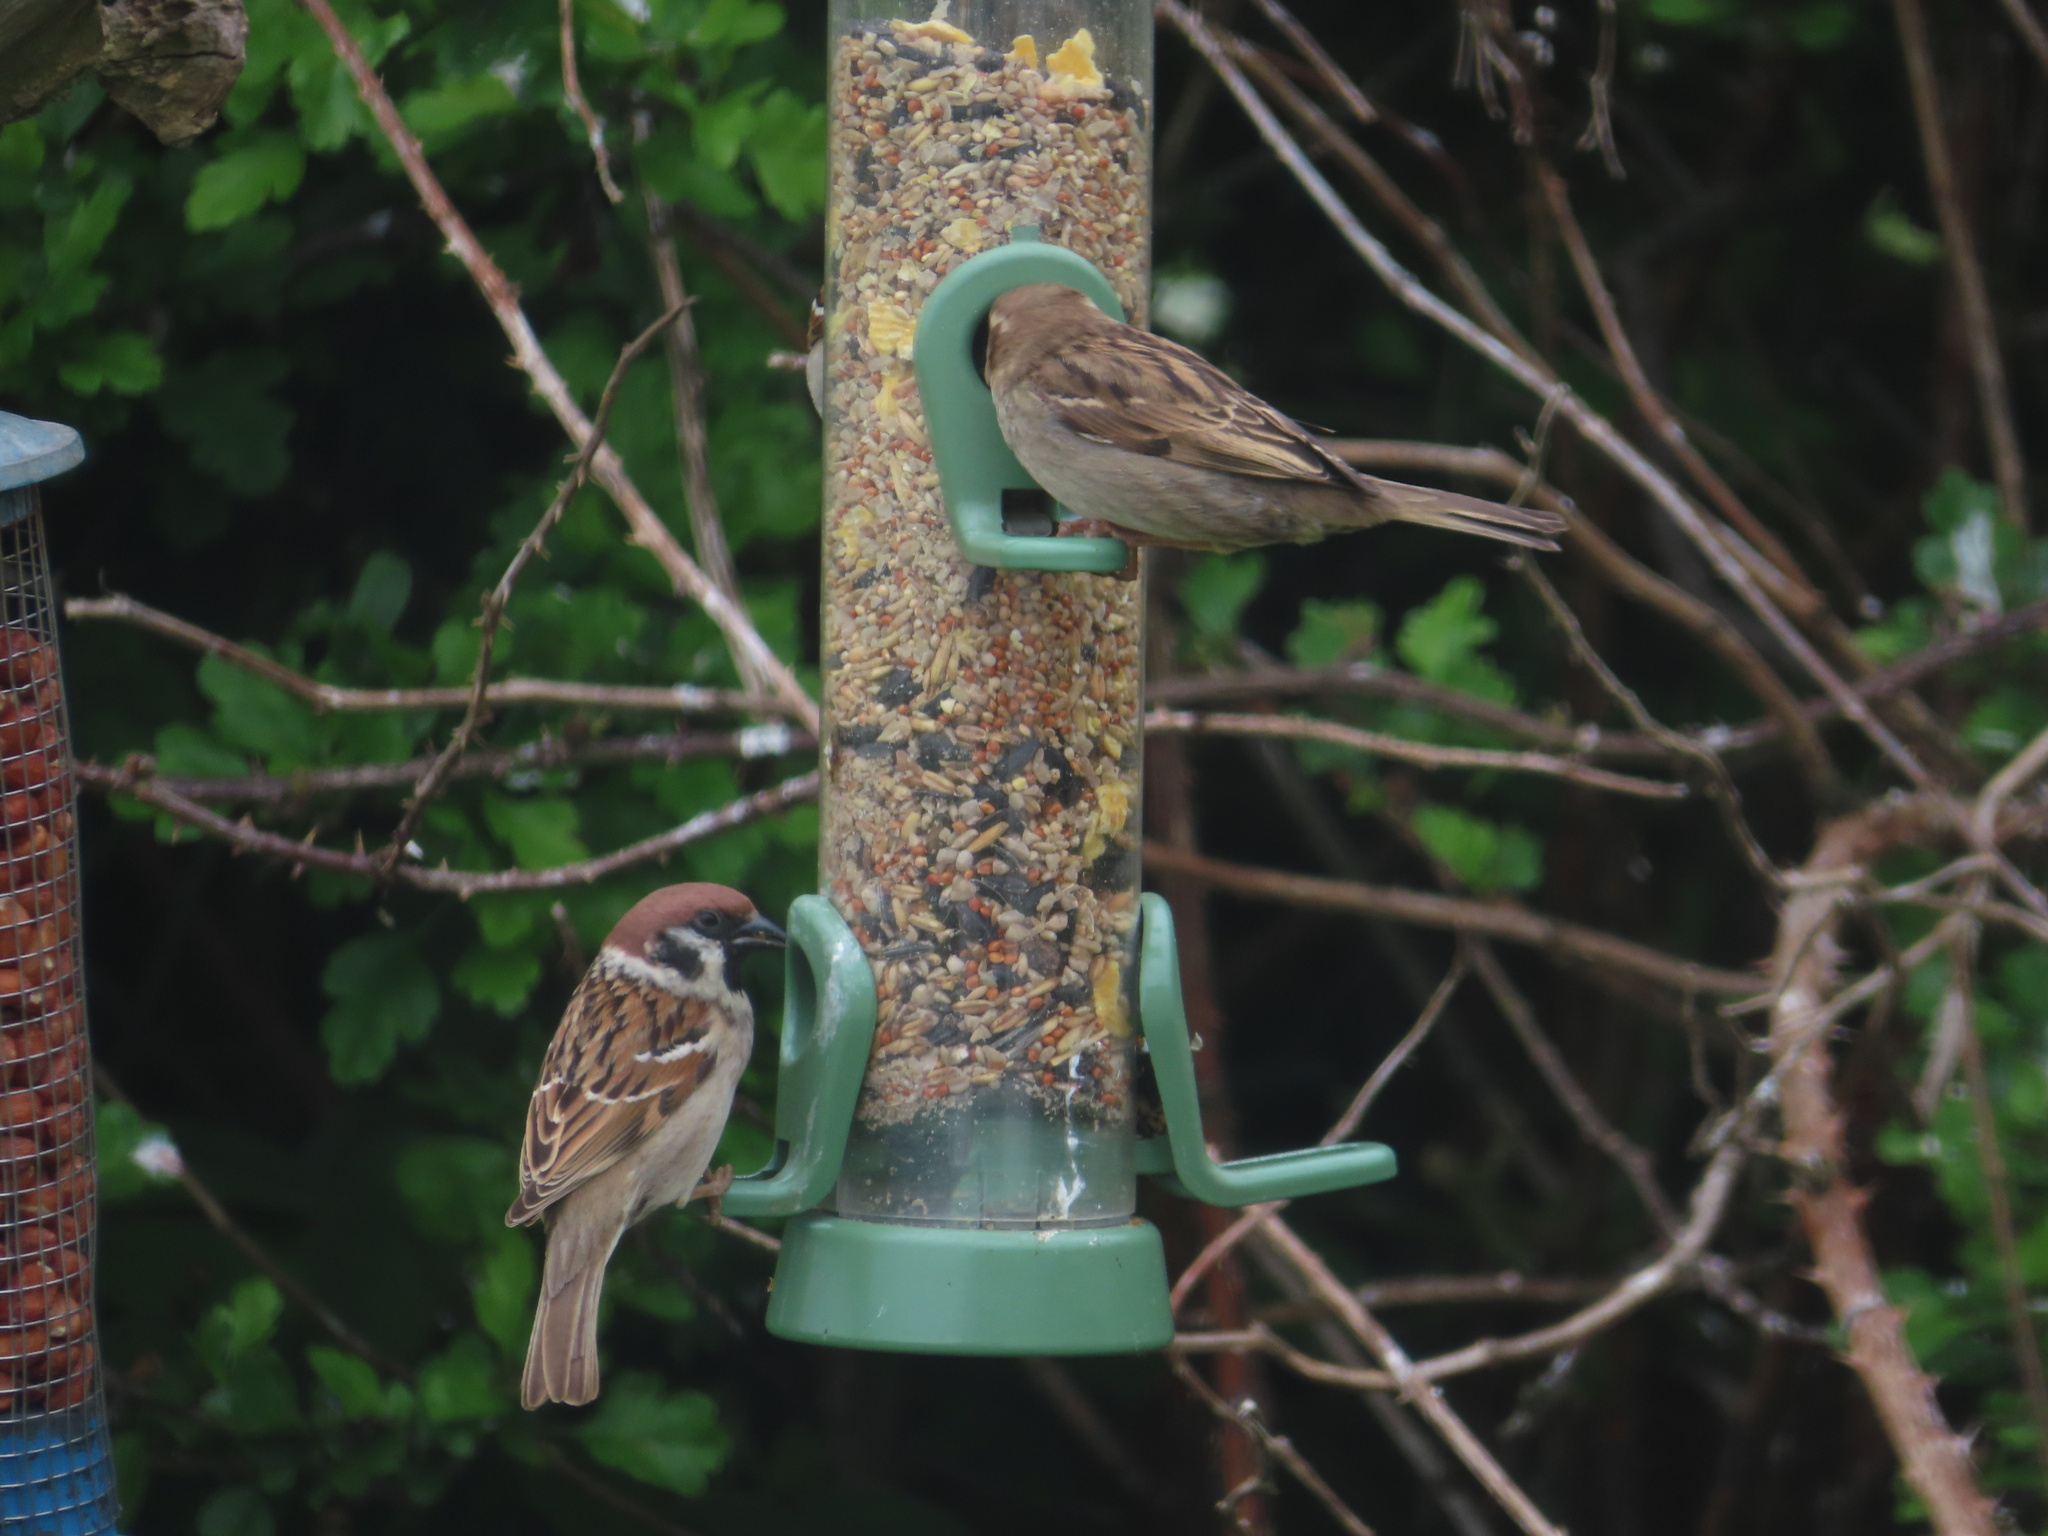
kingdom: Animalia
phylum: Chordata
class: Aves
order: Passeriformes
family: Passeridae
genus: Passer
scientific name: Passer montanus
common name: Eurasian tree sparrow
